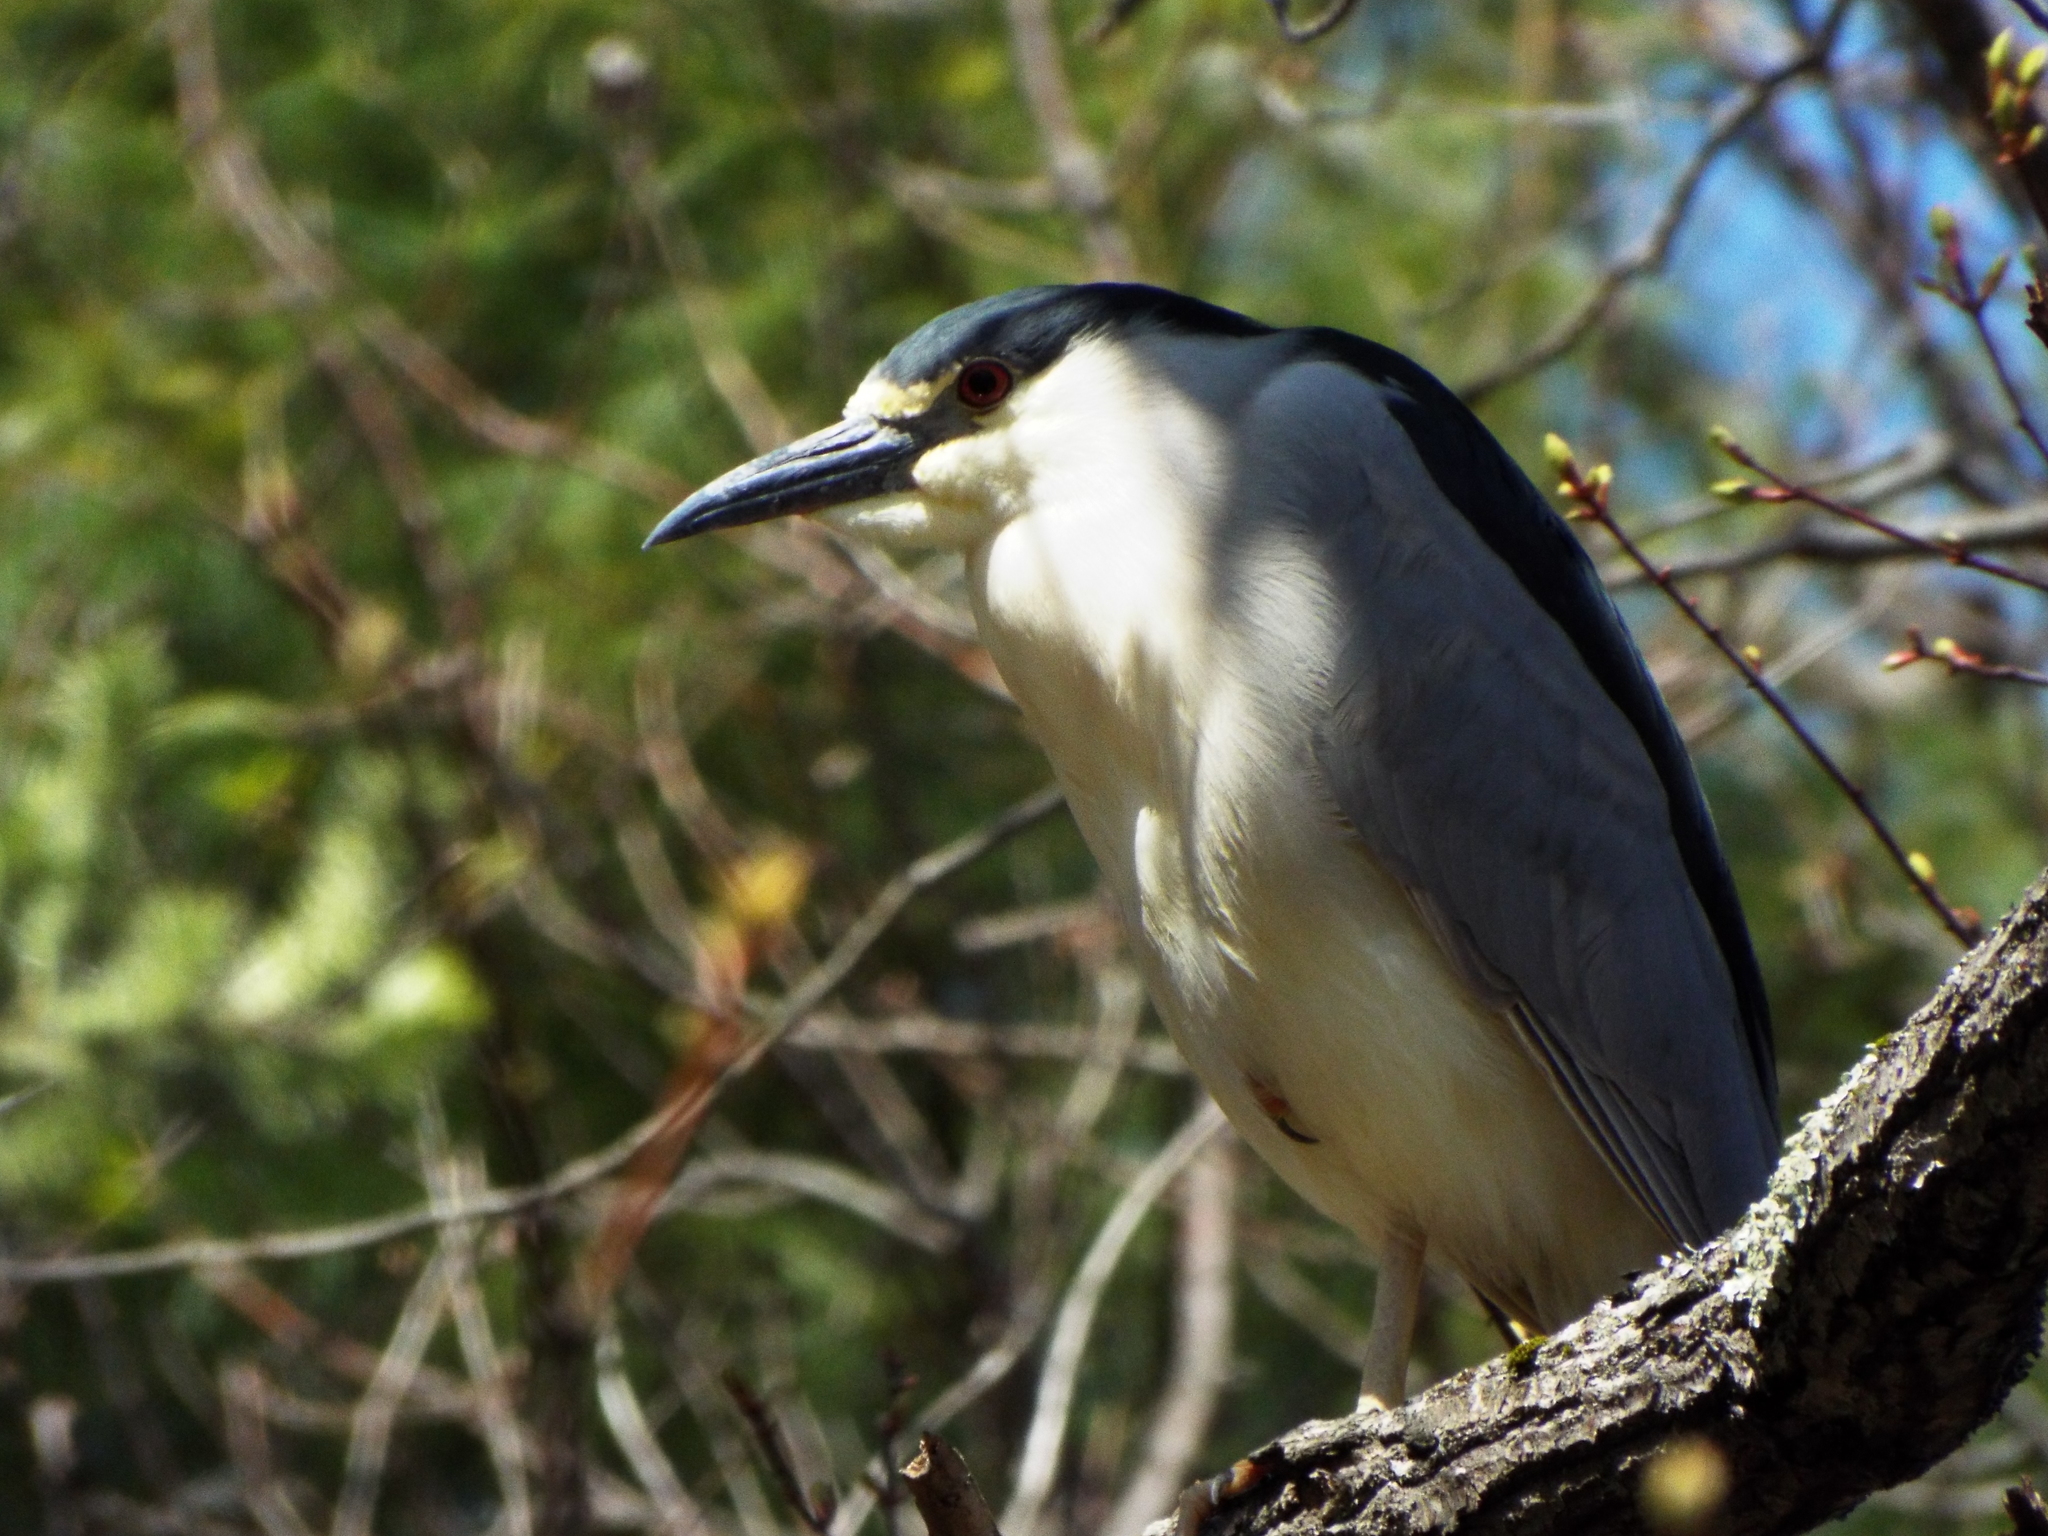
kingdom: Animalia
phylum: Chordata
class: Aves
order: Pelecaniformes
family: Ardeidae
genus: Nycticorax
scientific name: Nycticorax nycticorax
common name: Black-crowned night heron
